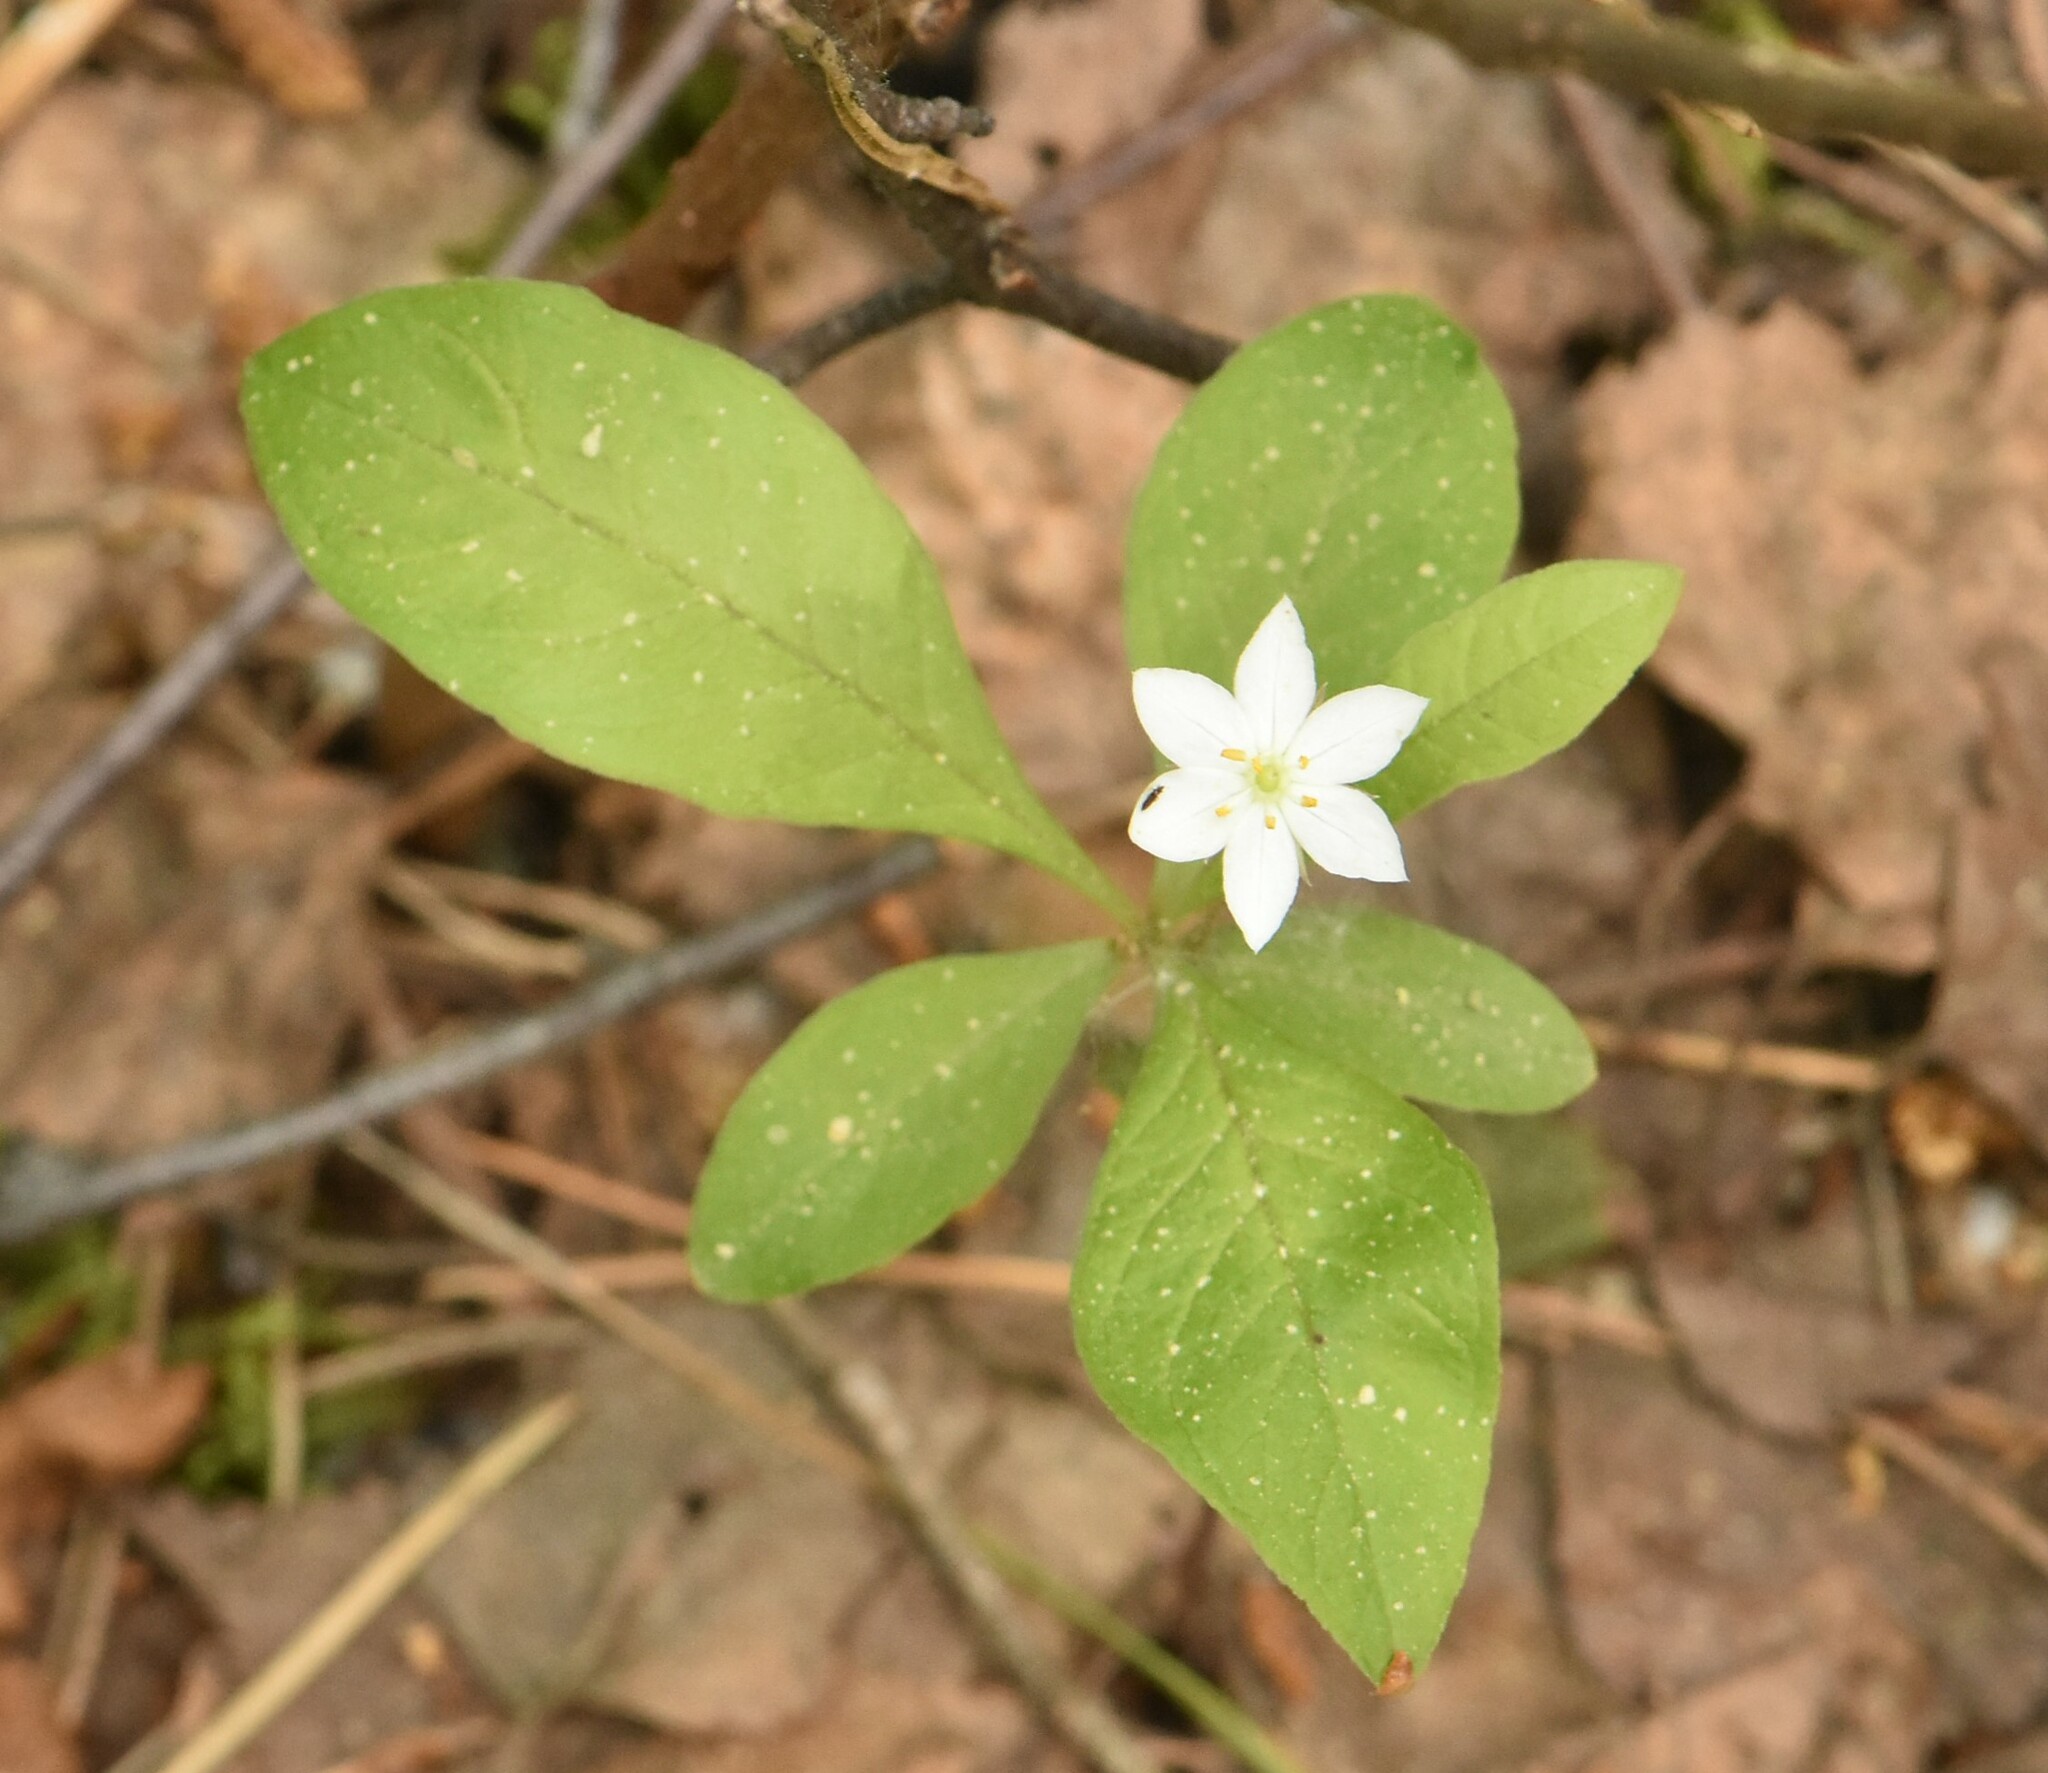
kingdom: Plantae
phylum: Tracheophyta
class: Magnoliopsida
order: Ericales
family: Primulaceae
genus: Lysimachia
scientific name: Lysimachia europaea
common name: Arctic starflower
